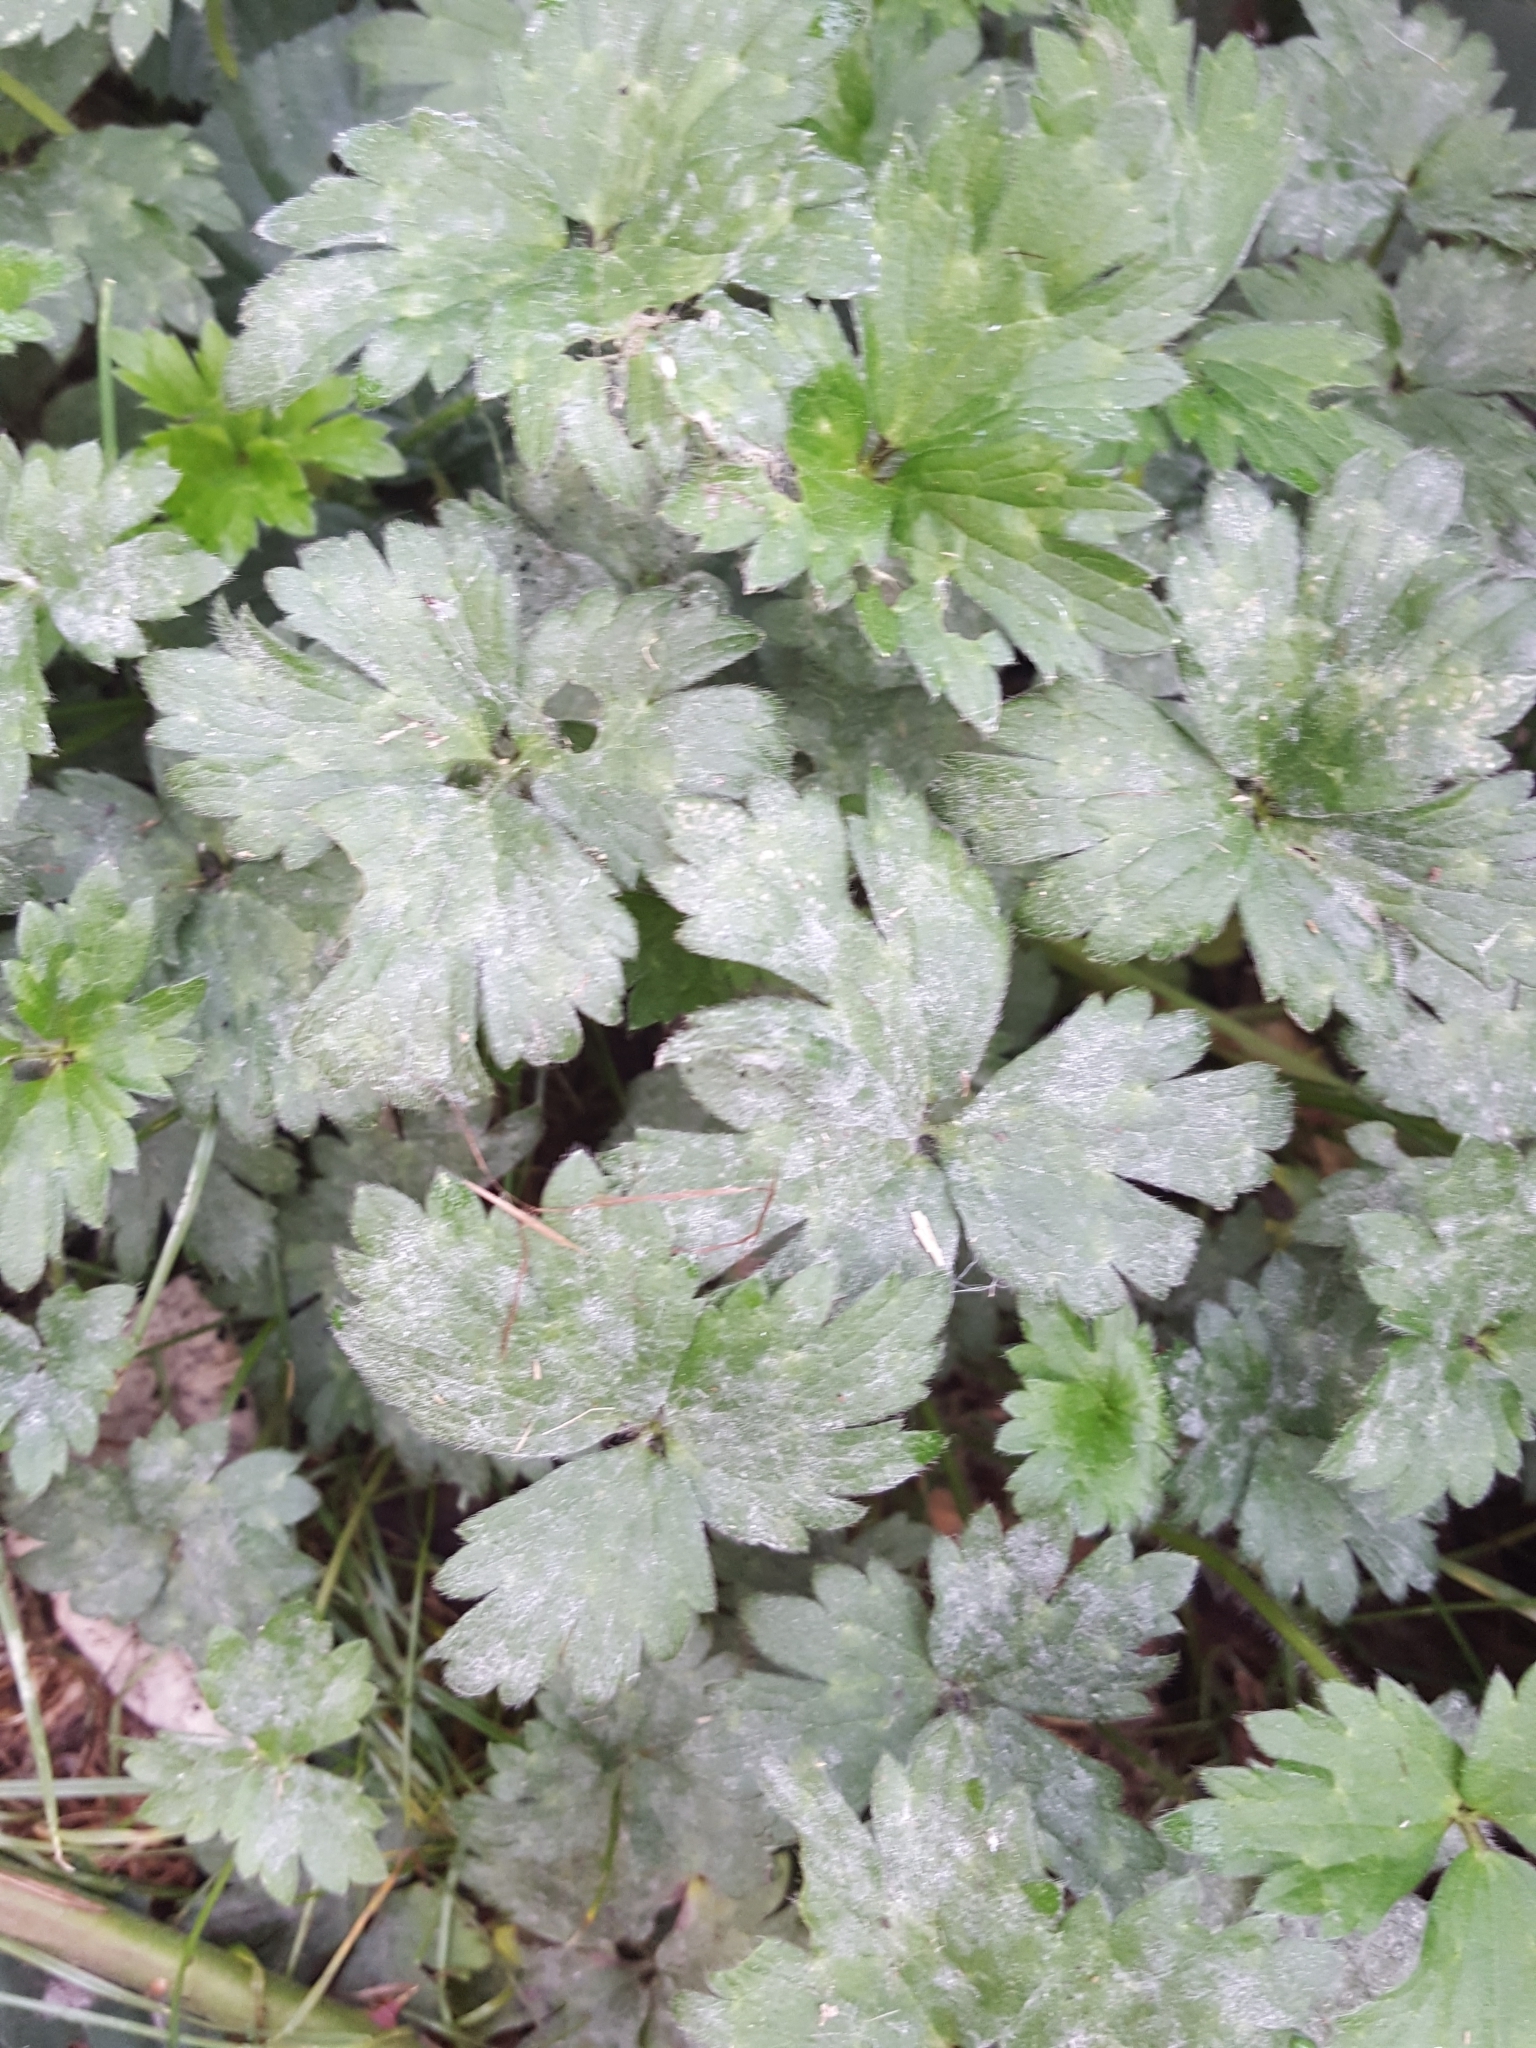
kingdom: Fungi
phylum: Ascomycota
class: Leotiomycetes
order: Helotiales
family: Erysiphaceae
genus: Erysiphe
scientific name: Erysiphe aquilegiae
